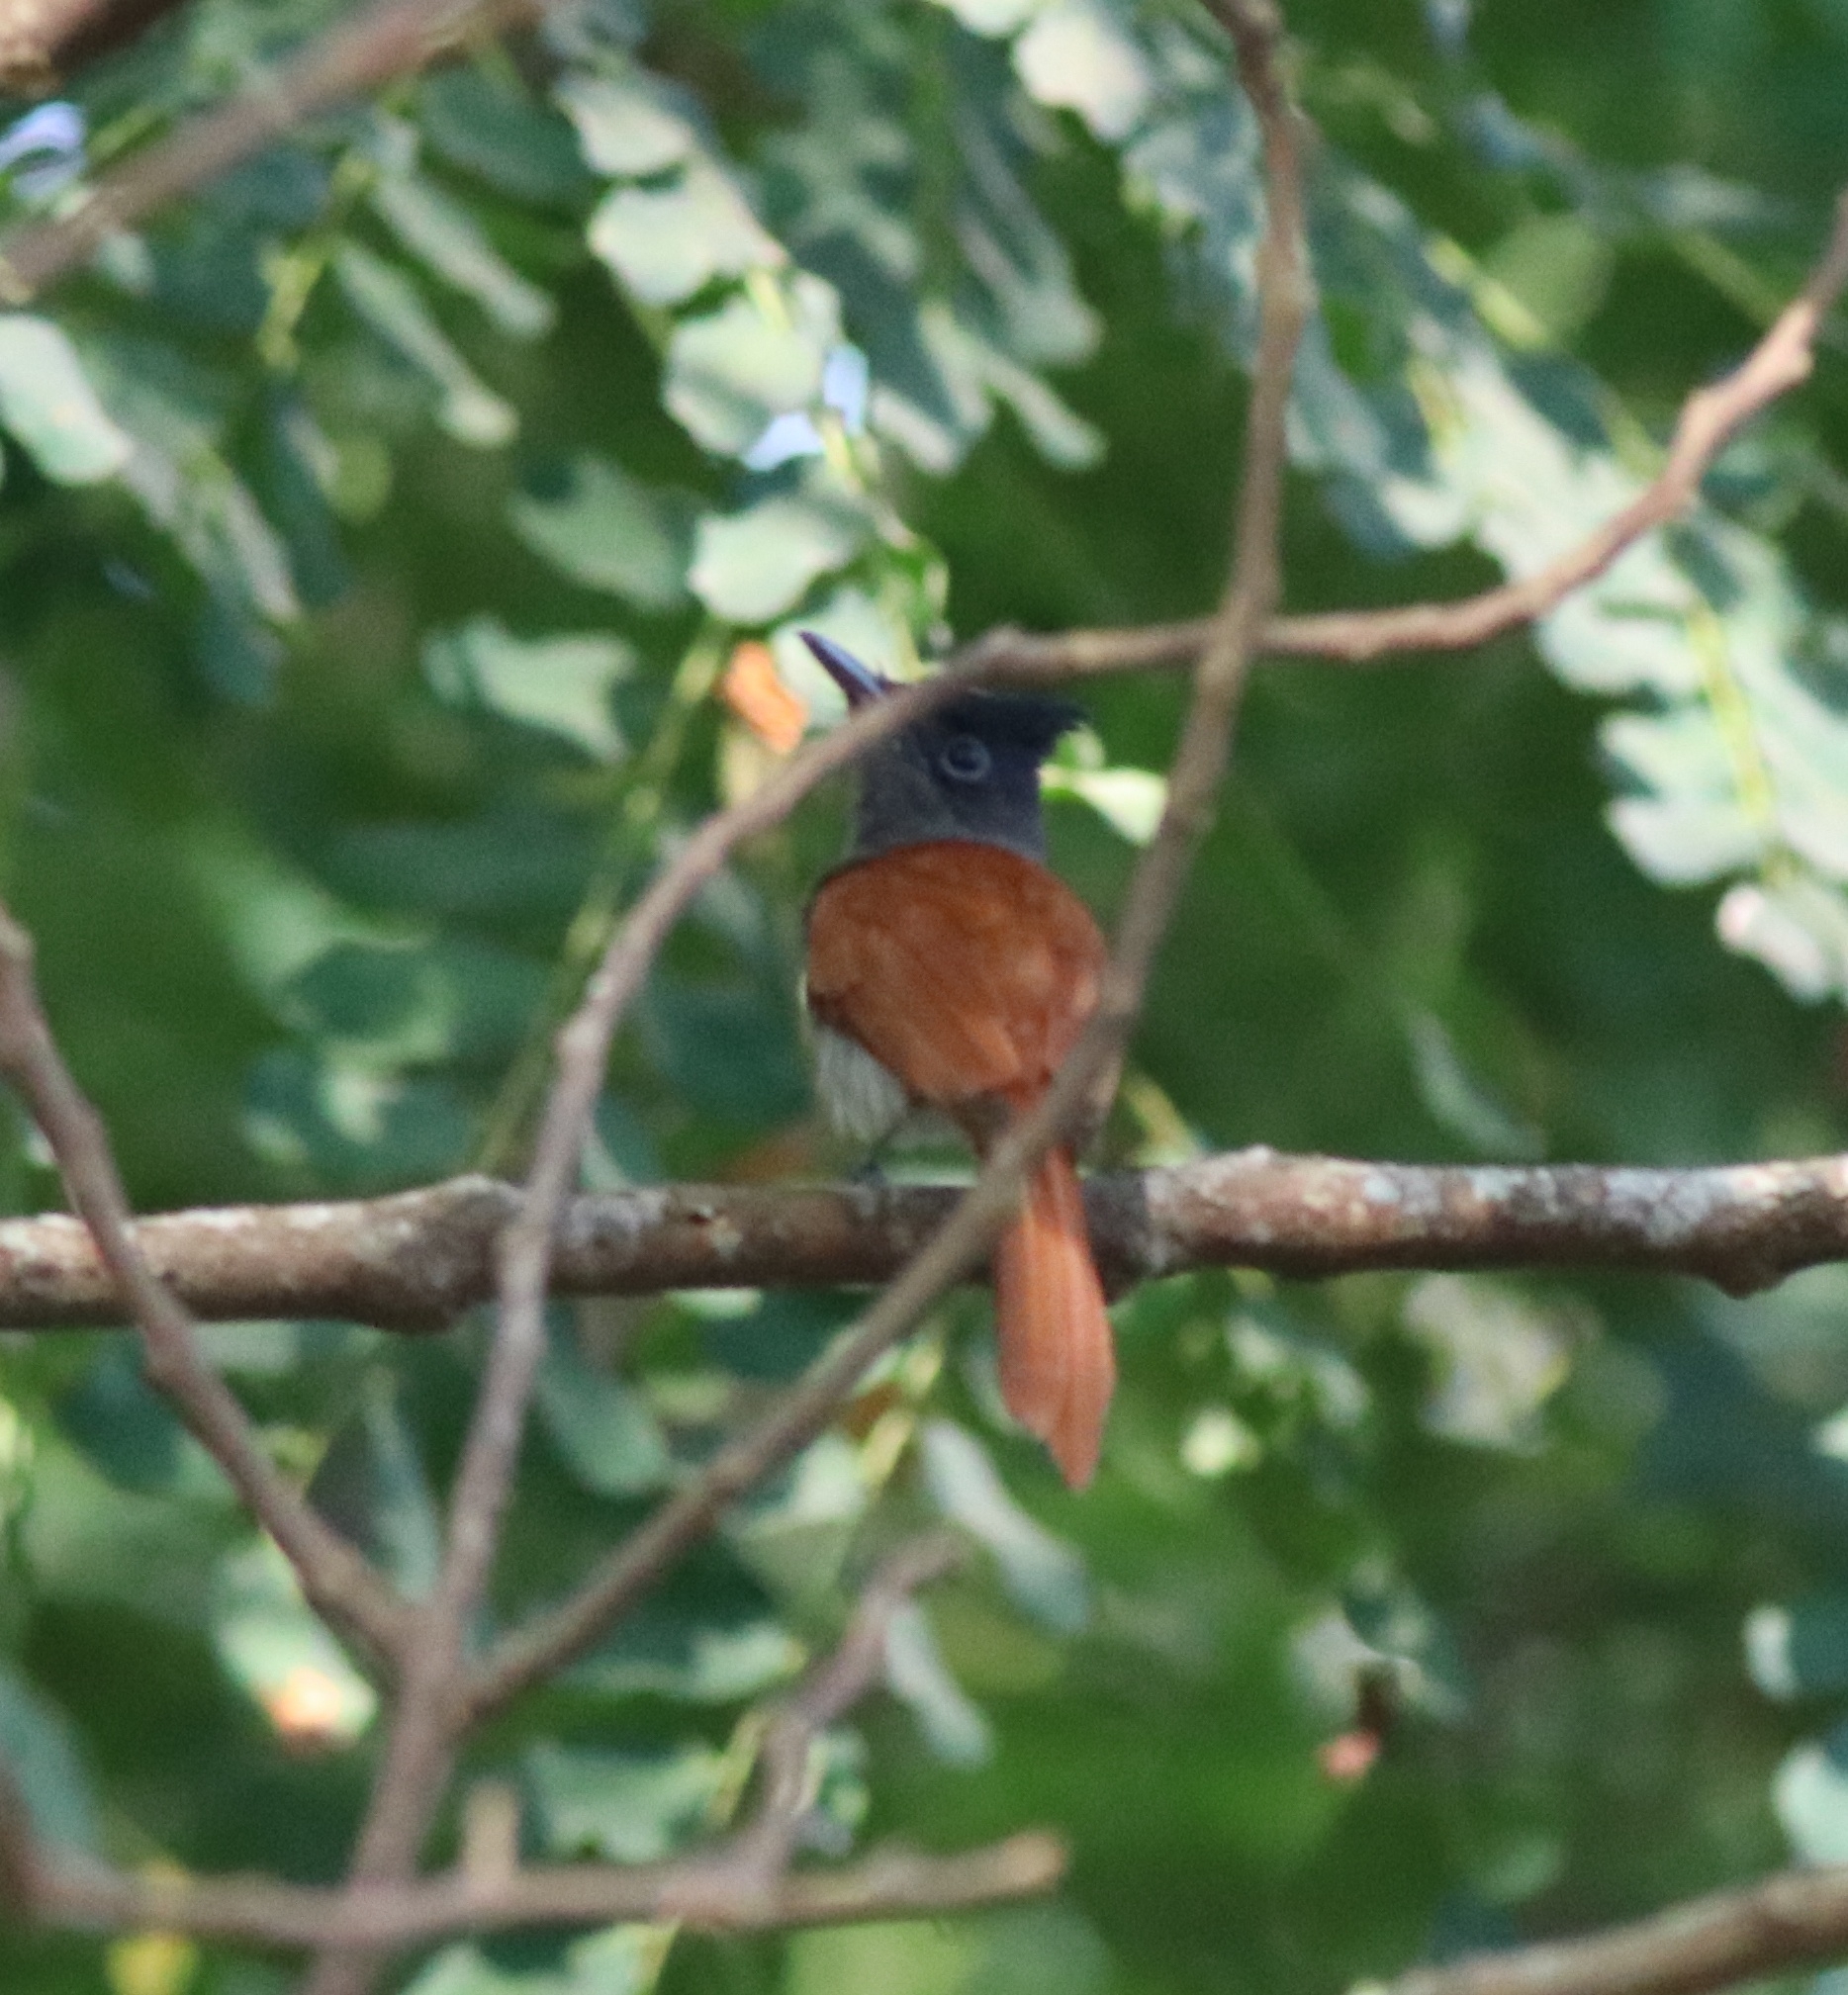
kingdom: Animalia
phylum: Chordata
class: Aves
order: Passeriformes
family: Monarchidae
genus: Terpsiphone
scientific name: Terpsiphone paradisi
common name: Indian paradise flycatcher
